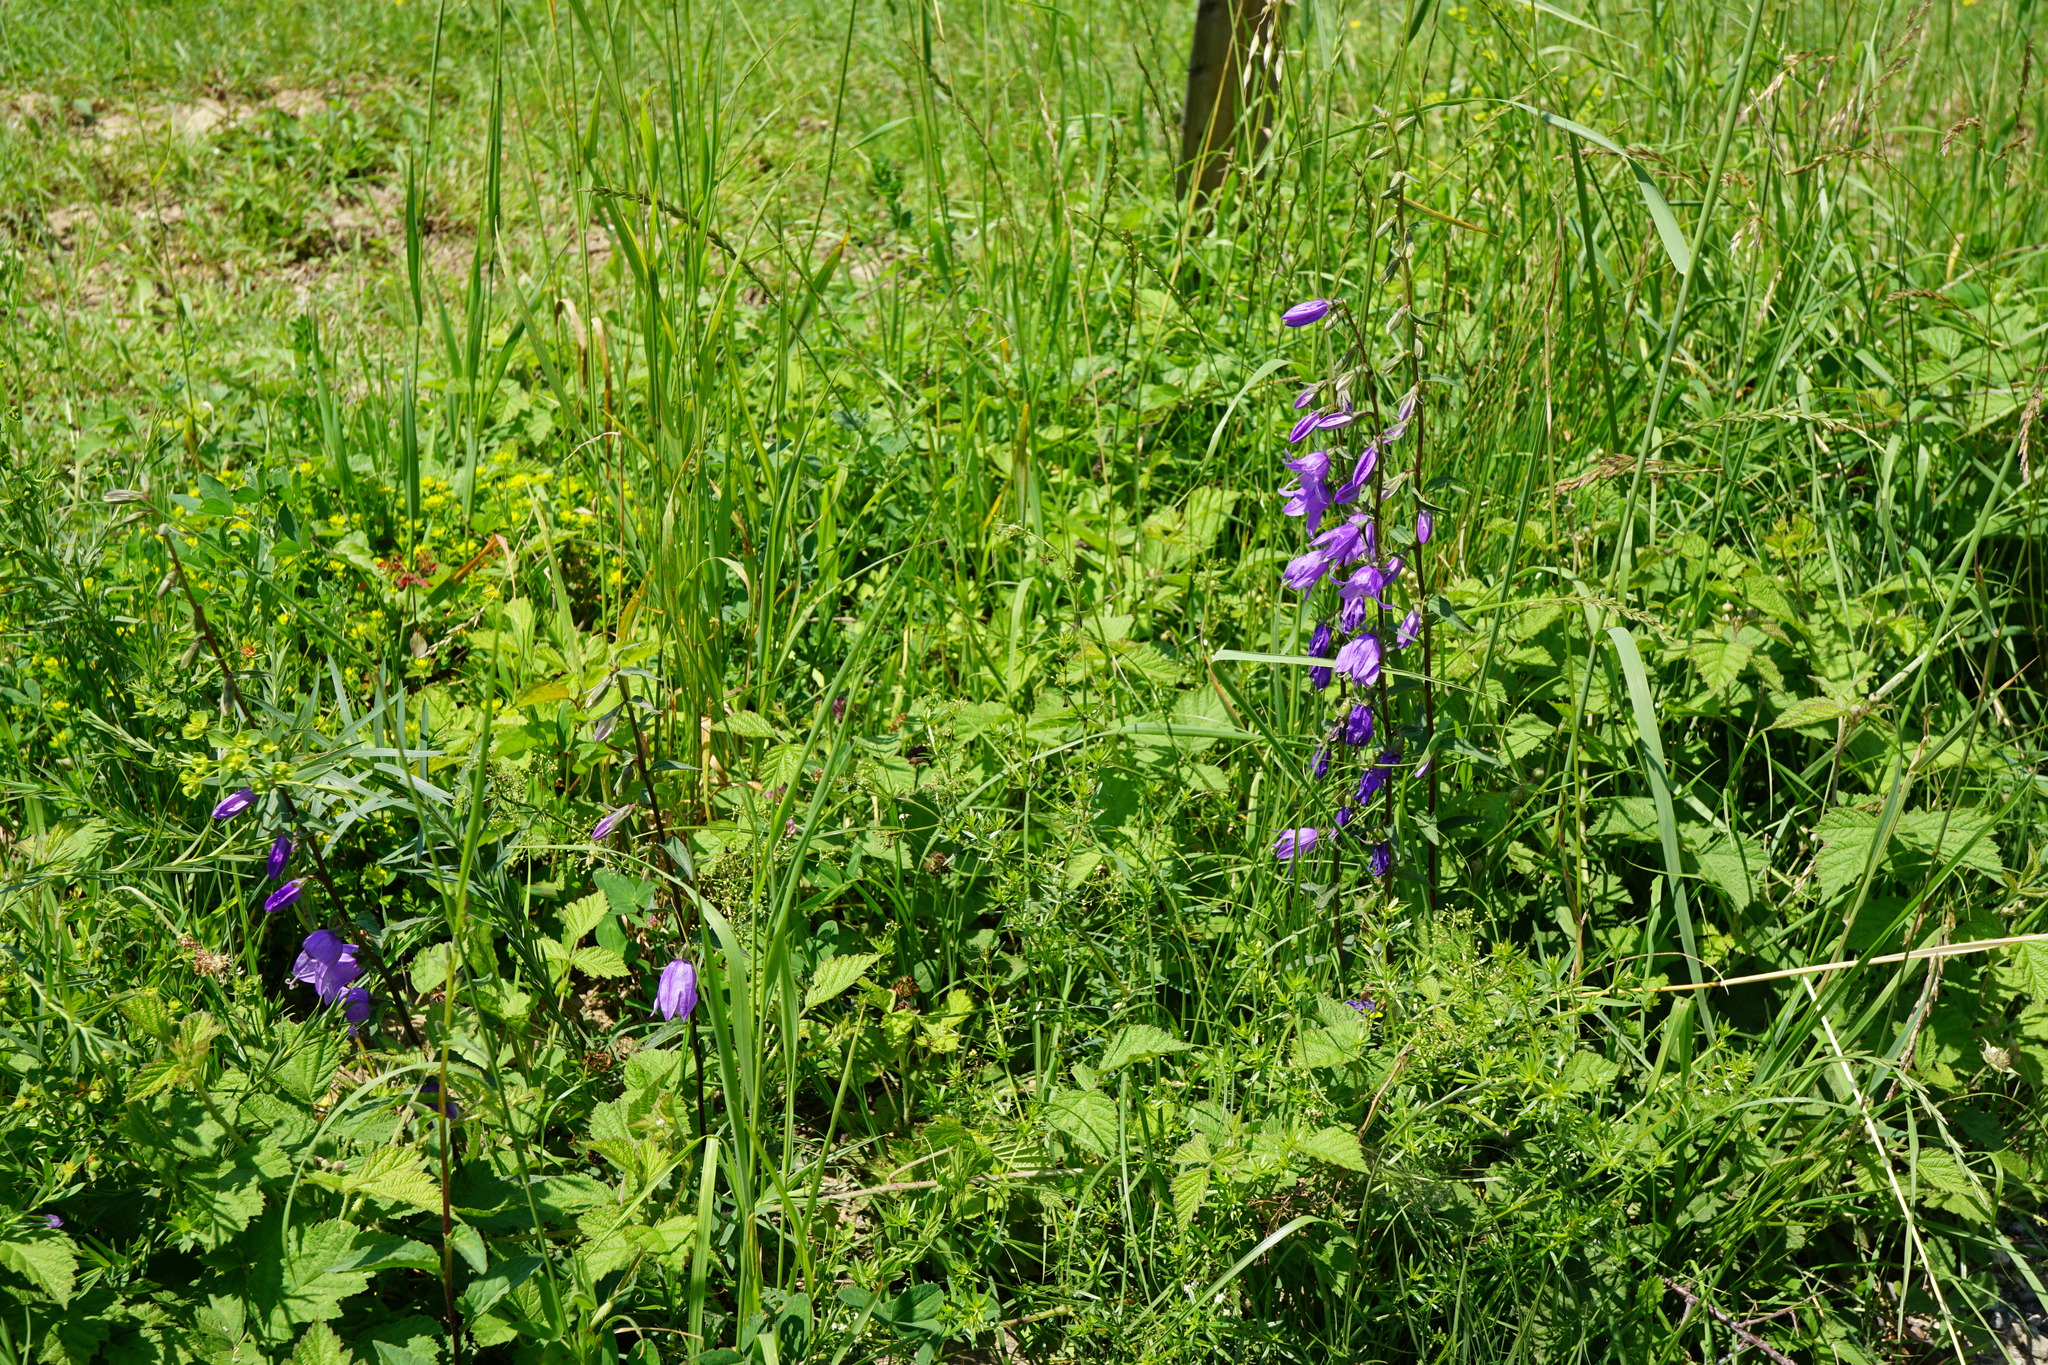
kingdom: Plantae
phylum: Tracheophyta
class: Magnoliopsida
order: Asterales
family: Campanulaceae
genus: Campanula
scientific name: Campanula rapunculoides
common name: Creeping bellflower
